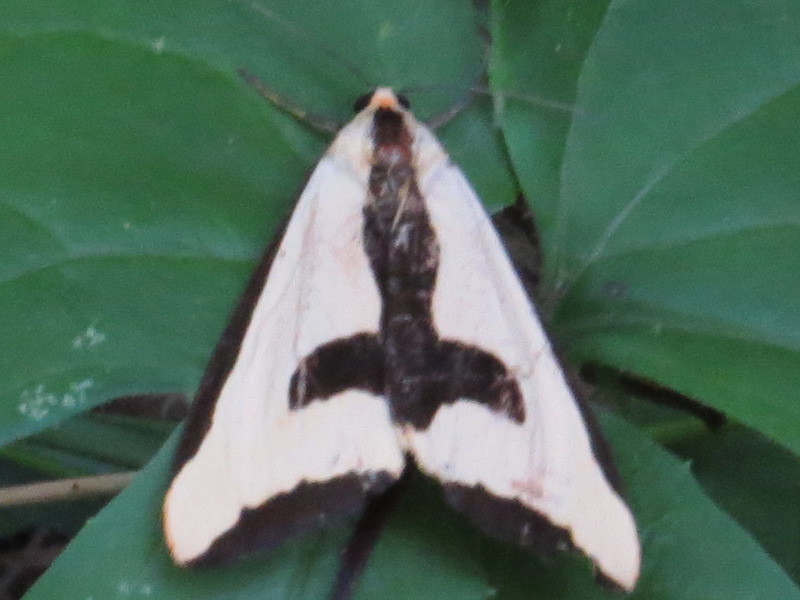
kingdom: Animalia
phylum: Arthropoda
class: Insecta
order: Lepidoptera
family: Erebidae
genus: Haploa
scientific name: Haploa clymene
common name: Clymene moth
